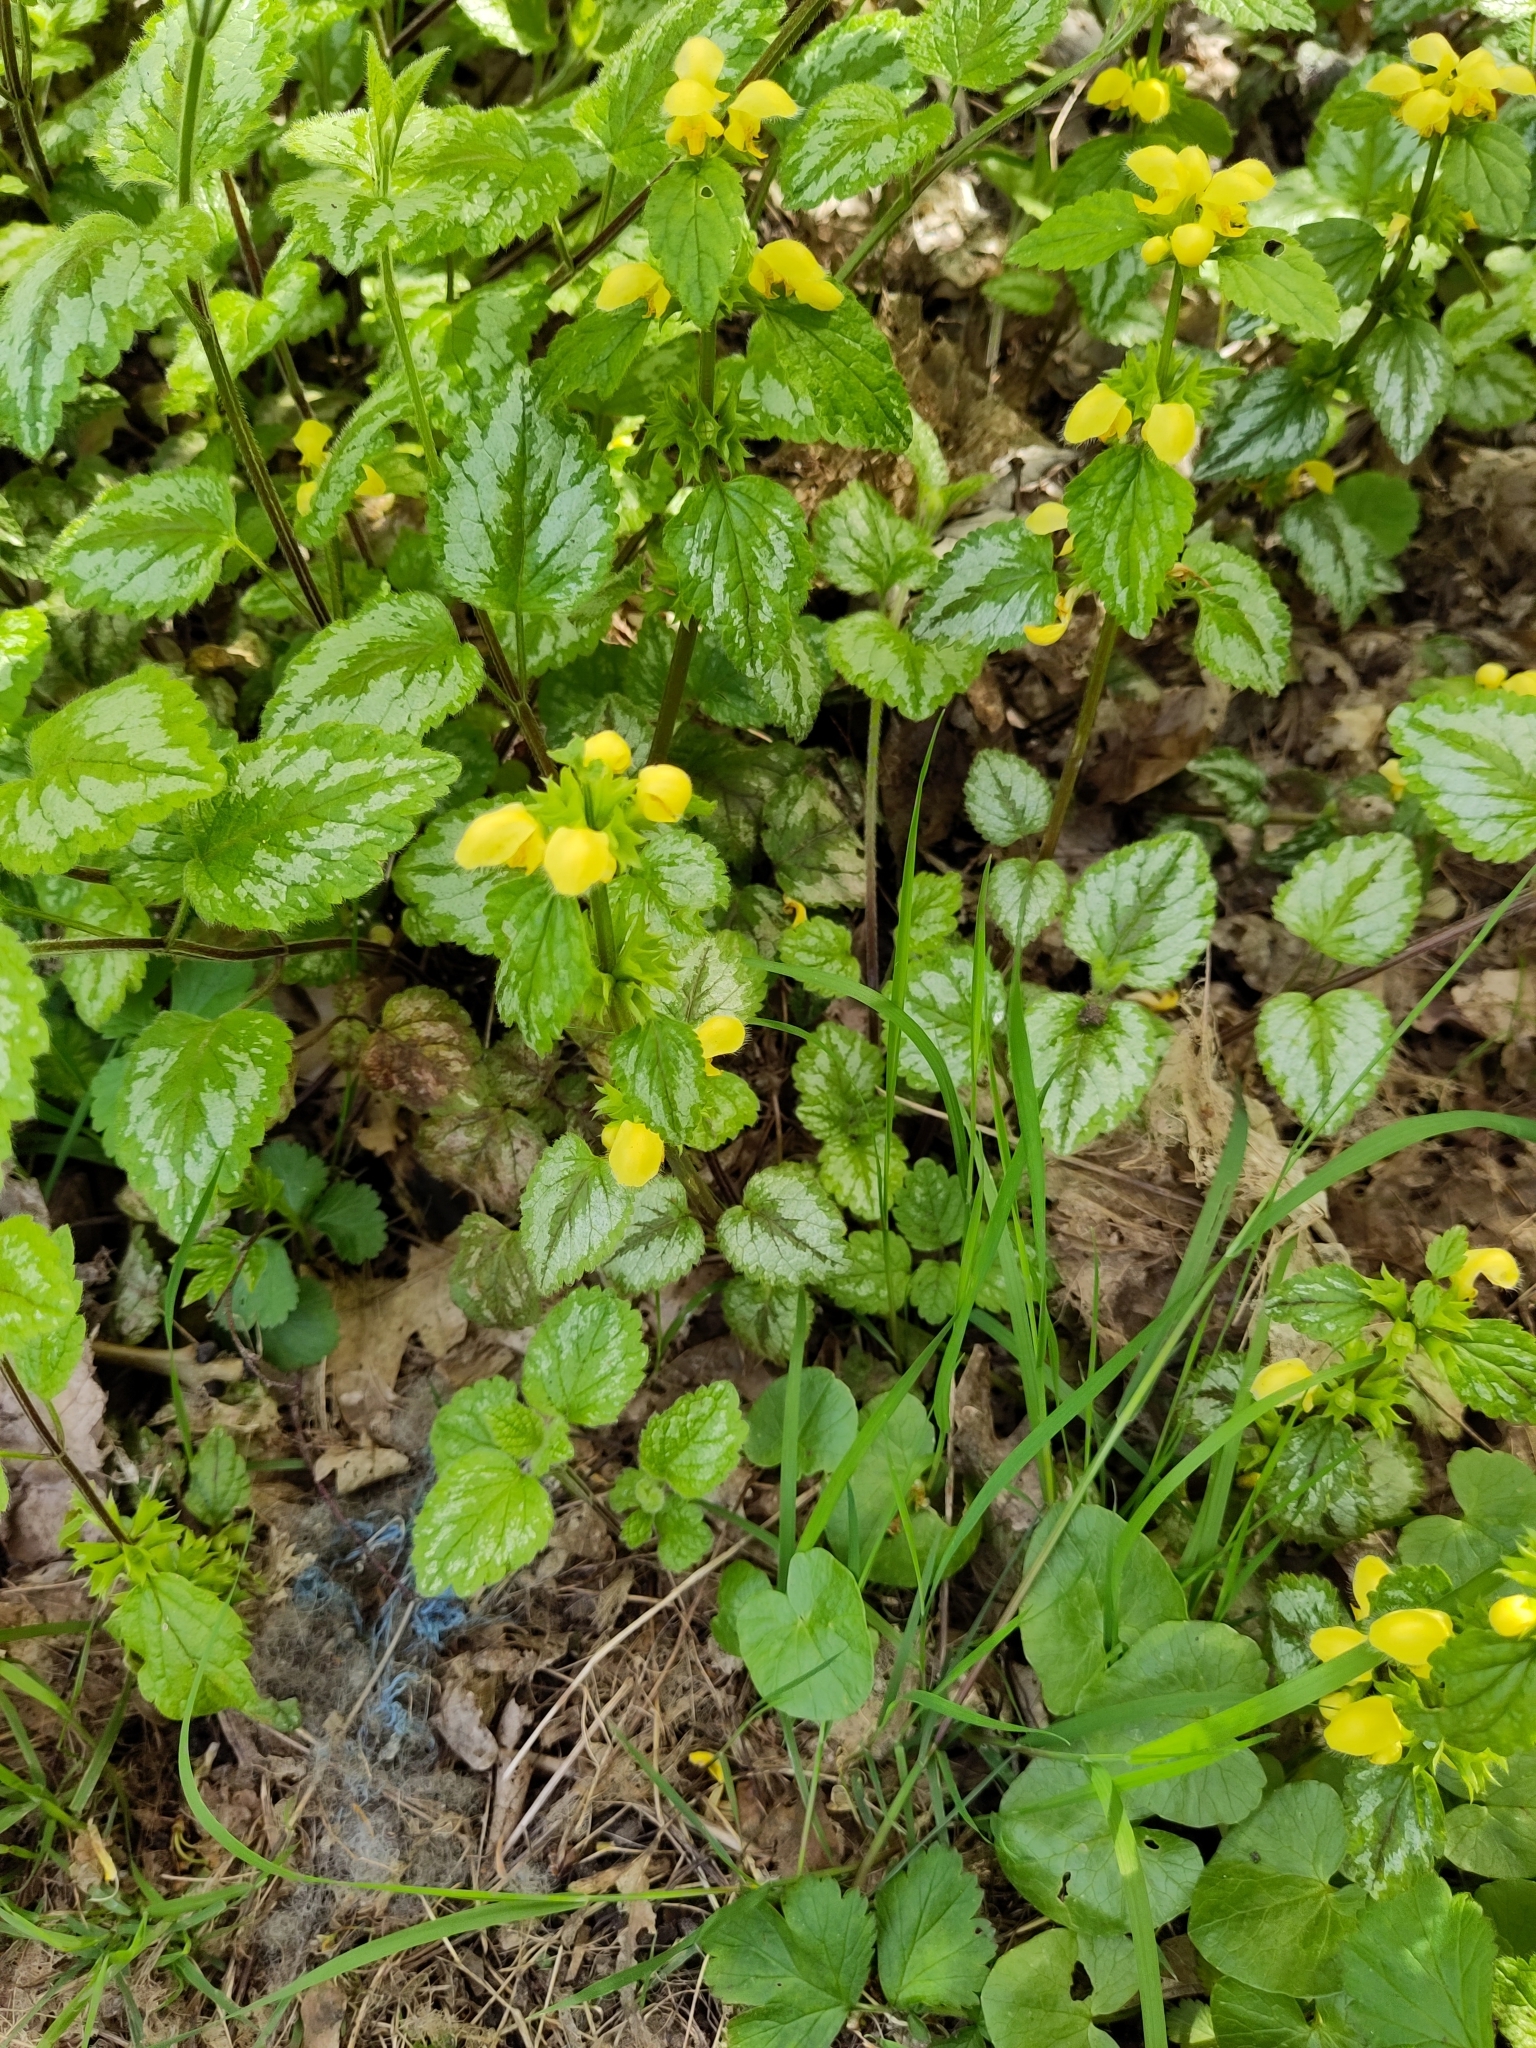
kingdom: Plantae
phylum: Tracheophyta
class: Magnoliopsida
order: Lamiales
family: Lamiaceae
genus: Lamium
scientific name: Lamium galeobdolon
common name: Yellow archangel
